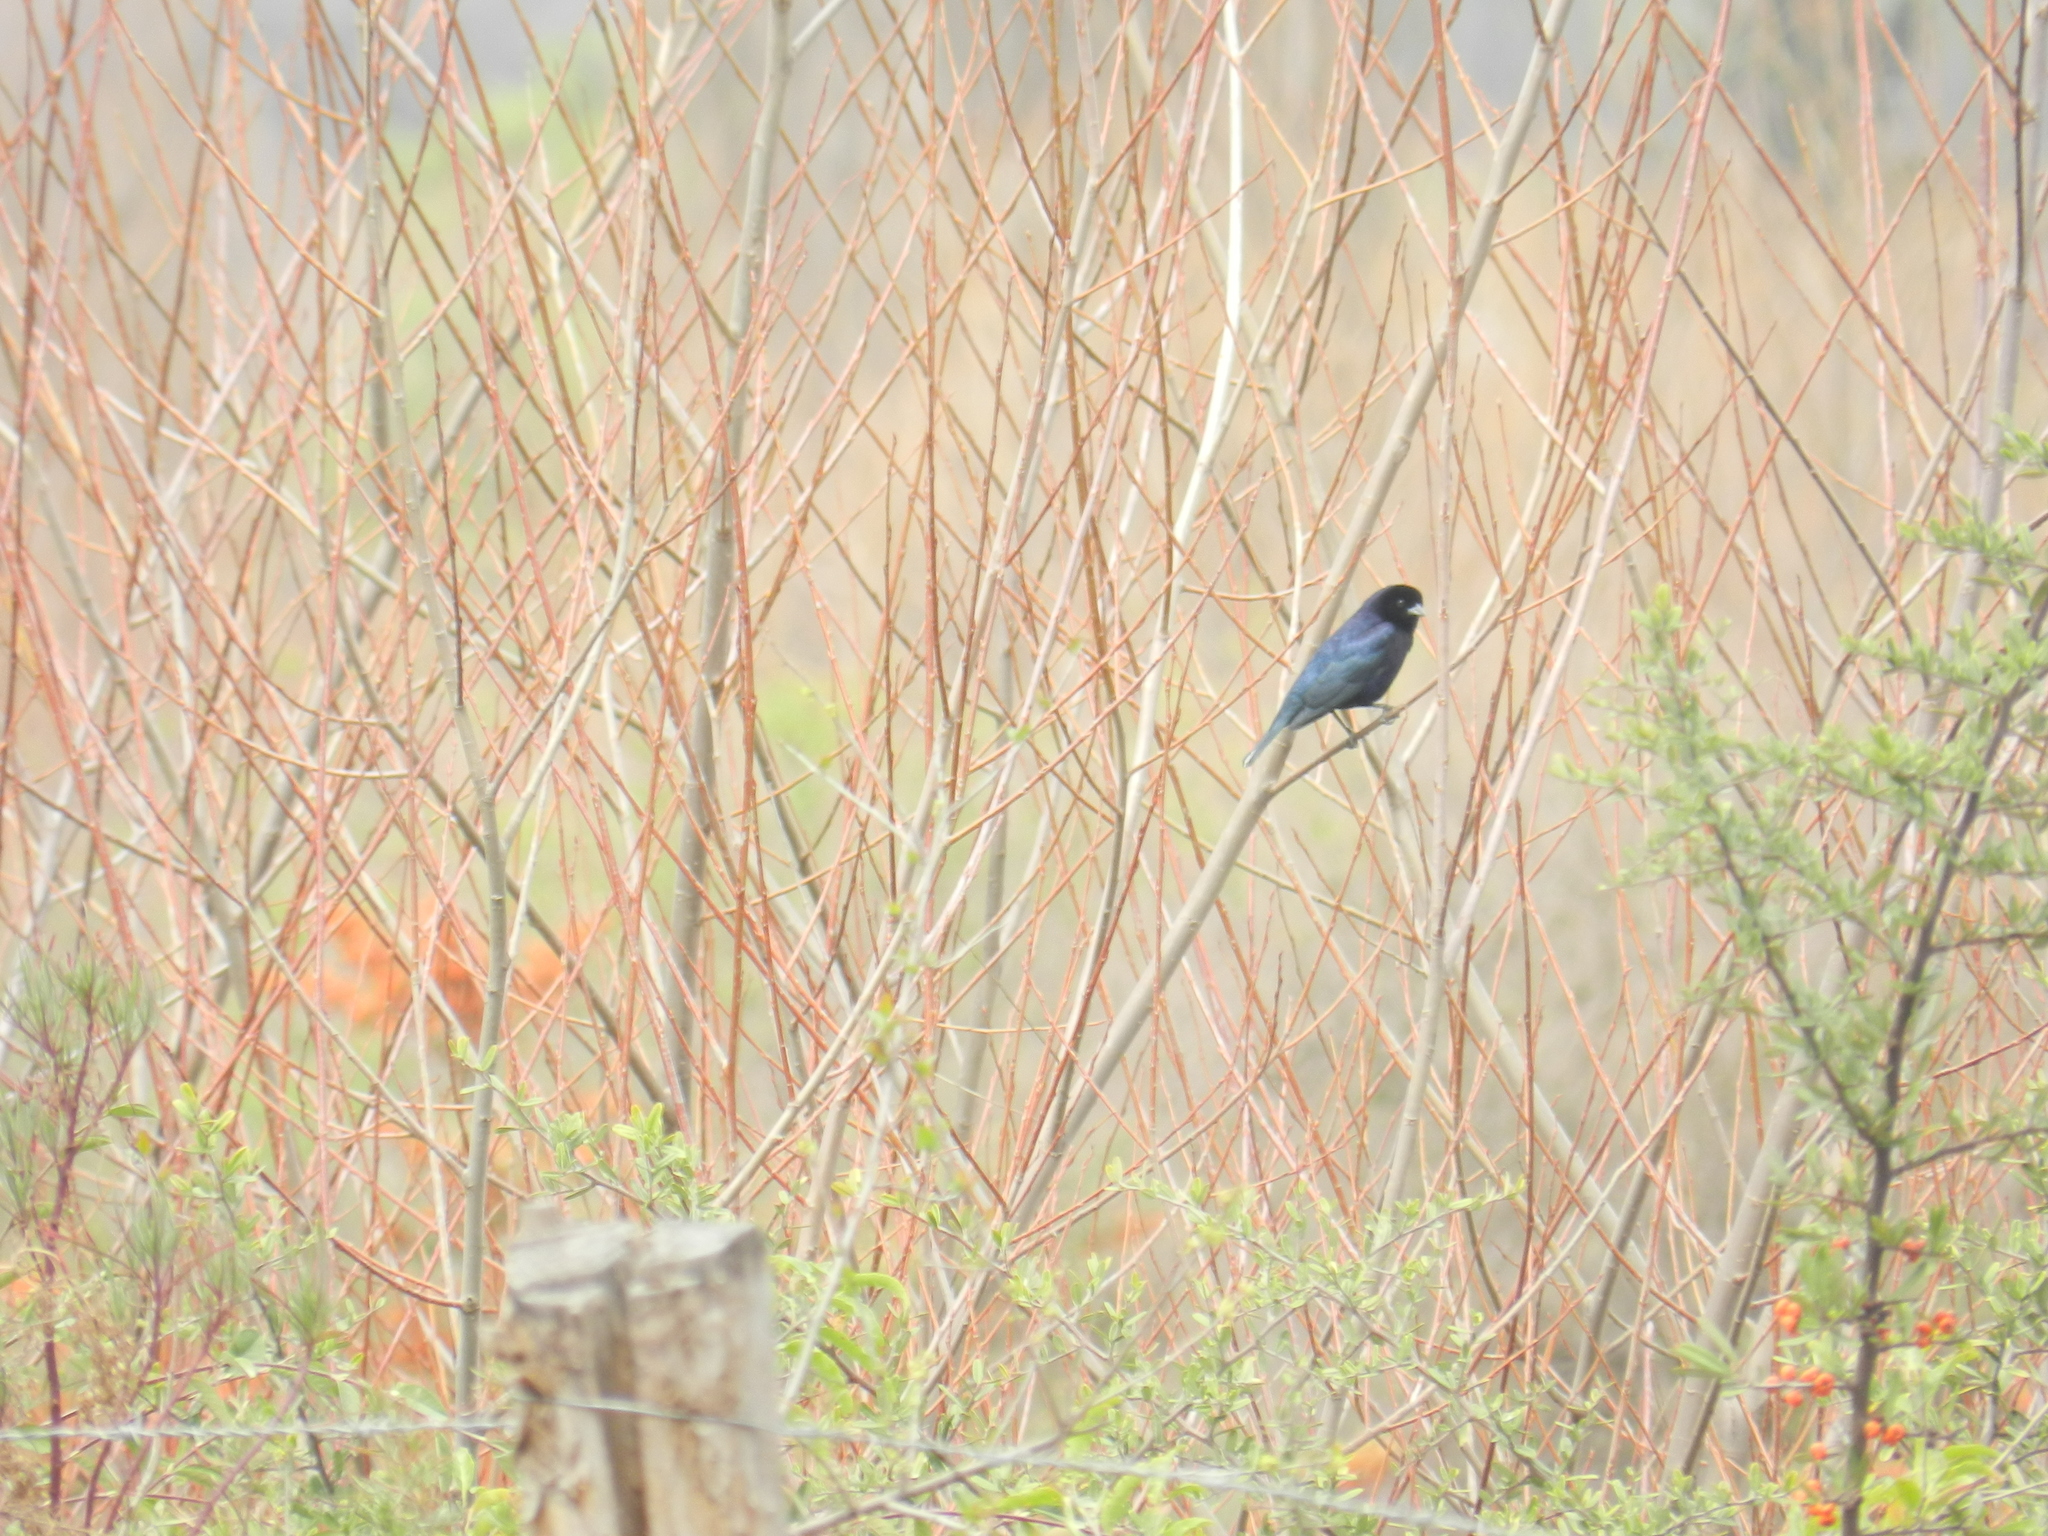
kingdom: Animalia
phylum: Chordata
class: Aves
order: Passeriformes
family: Icteridae
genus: Molothrus
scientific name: Molothrus bonariensis
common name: Shiny cowbird
